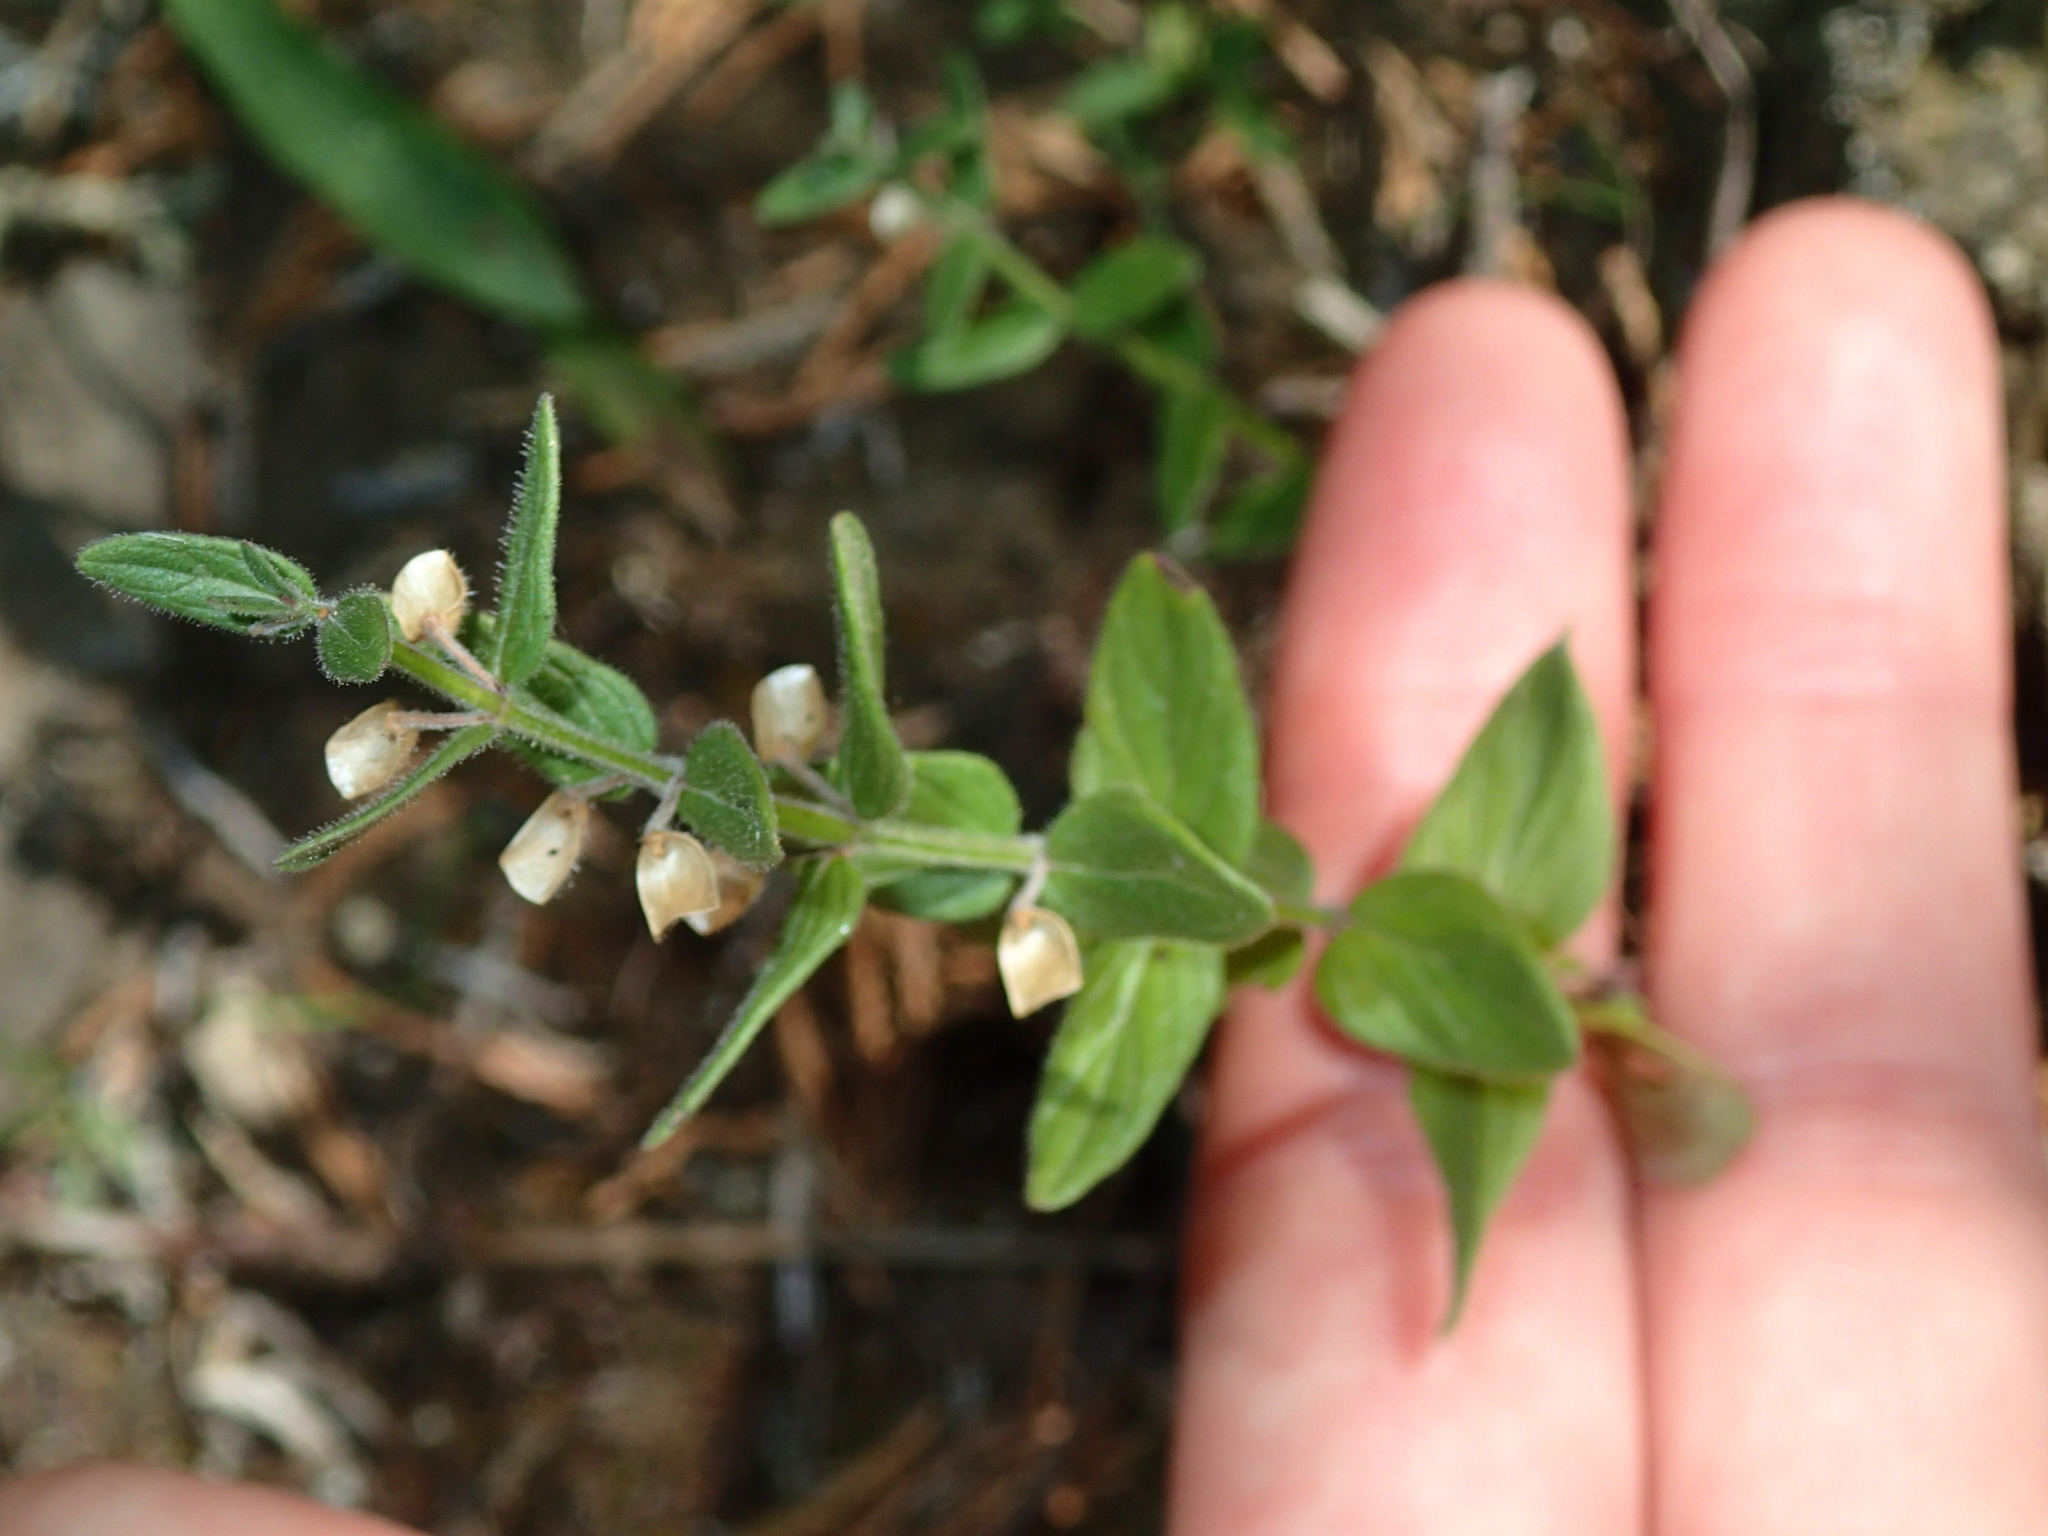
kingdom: Plantae
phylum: Tracheophyta
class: Magnoliopsida
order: Lamiales
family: Lamiaceae
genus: Scutellaria
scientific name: Scutellaria parvula
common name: Little scullcap
